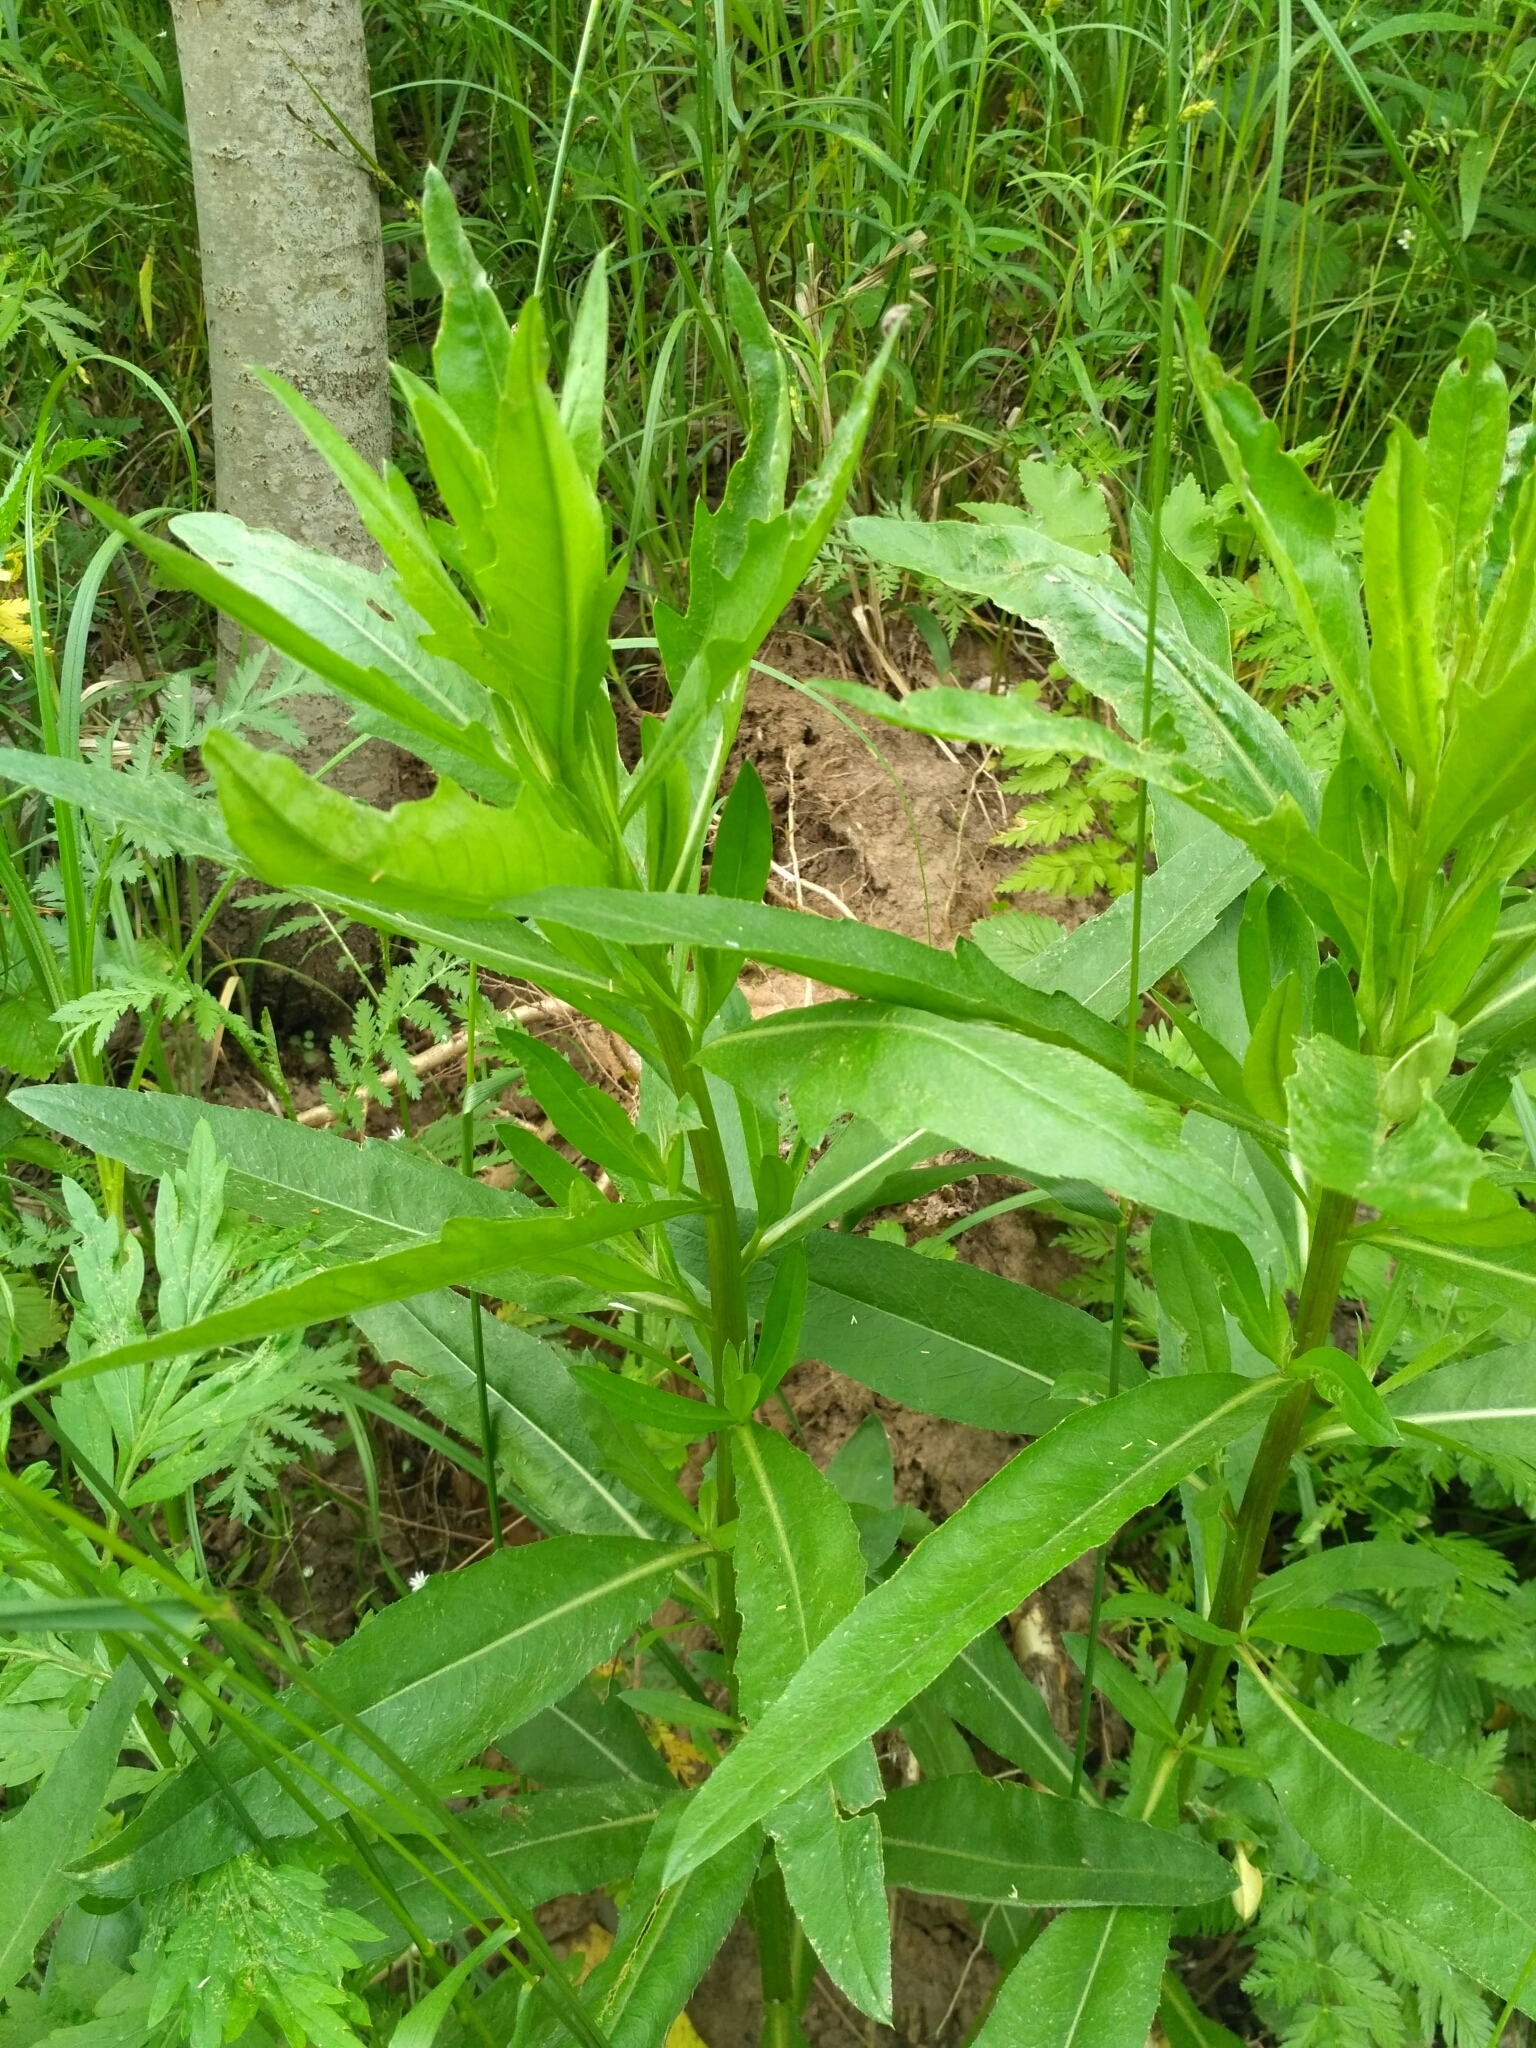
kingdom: Plantae
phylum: Tracheophyta
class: Magnoliopsida
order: Asterales
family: Asteraceae
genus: Cirsium
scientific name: Cirsium arvense
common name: Creeping thistle
